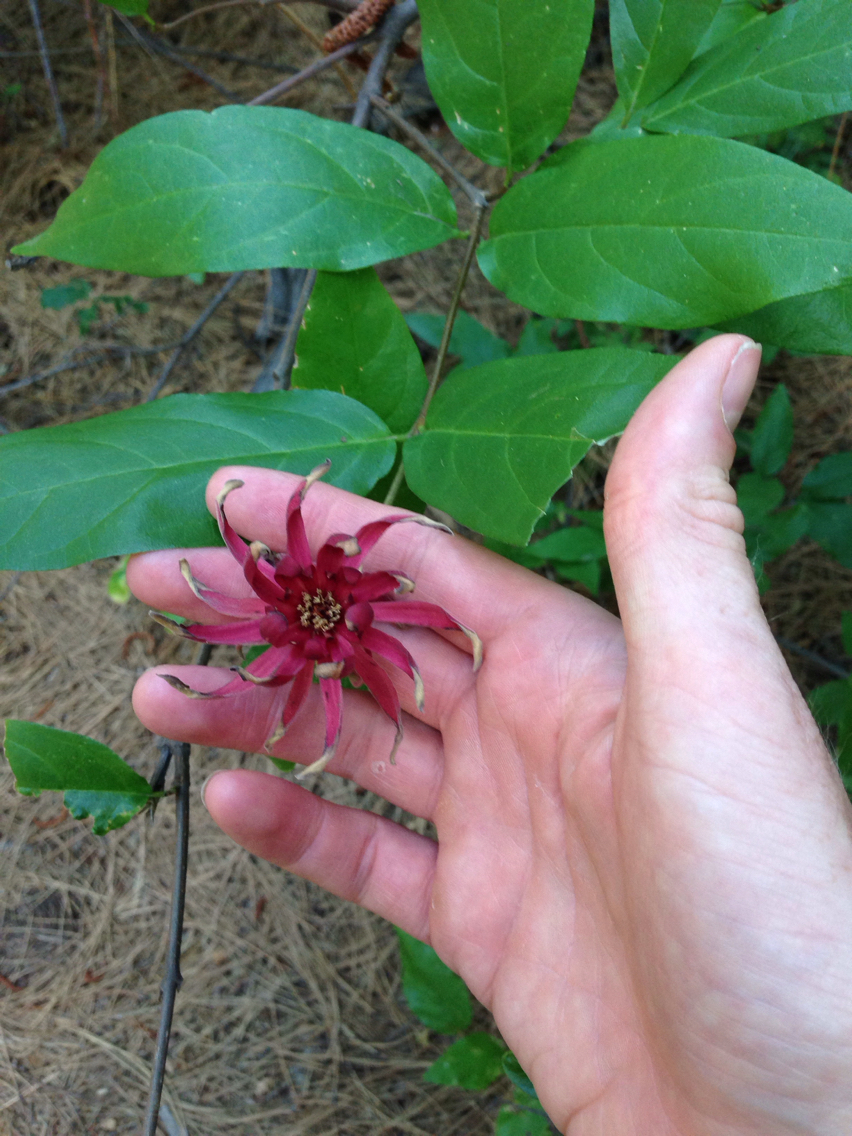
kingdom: Plantae
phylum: Tracheophyta
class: Magnoliopsida
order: Laurales
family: Calycanthaceae
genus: Calycanthus
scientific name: Calycanthus occidentalis
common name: California spicebush
